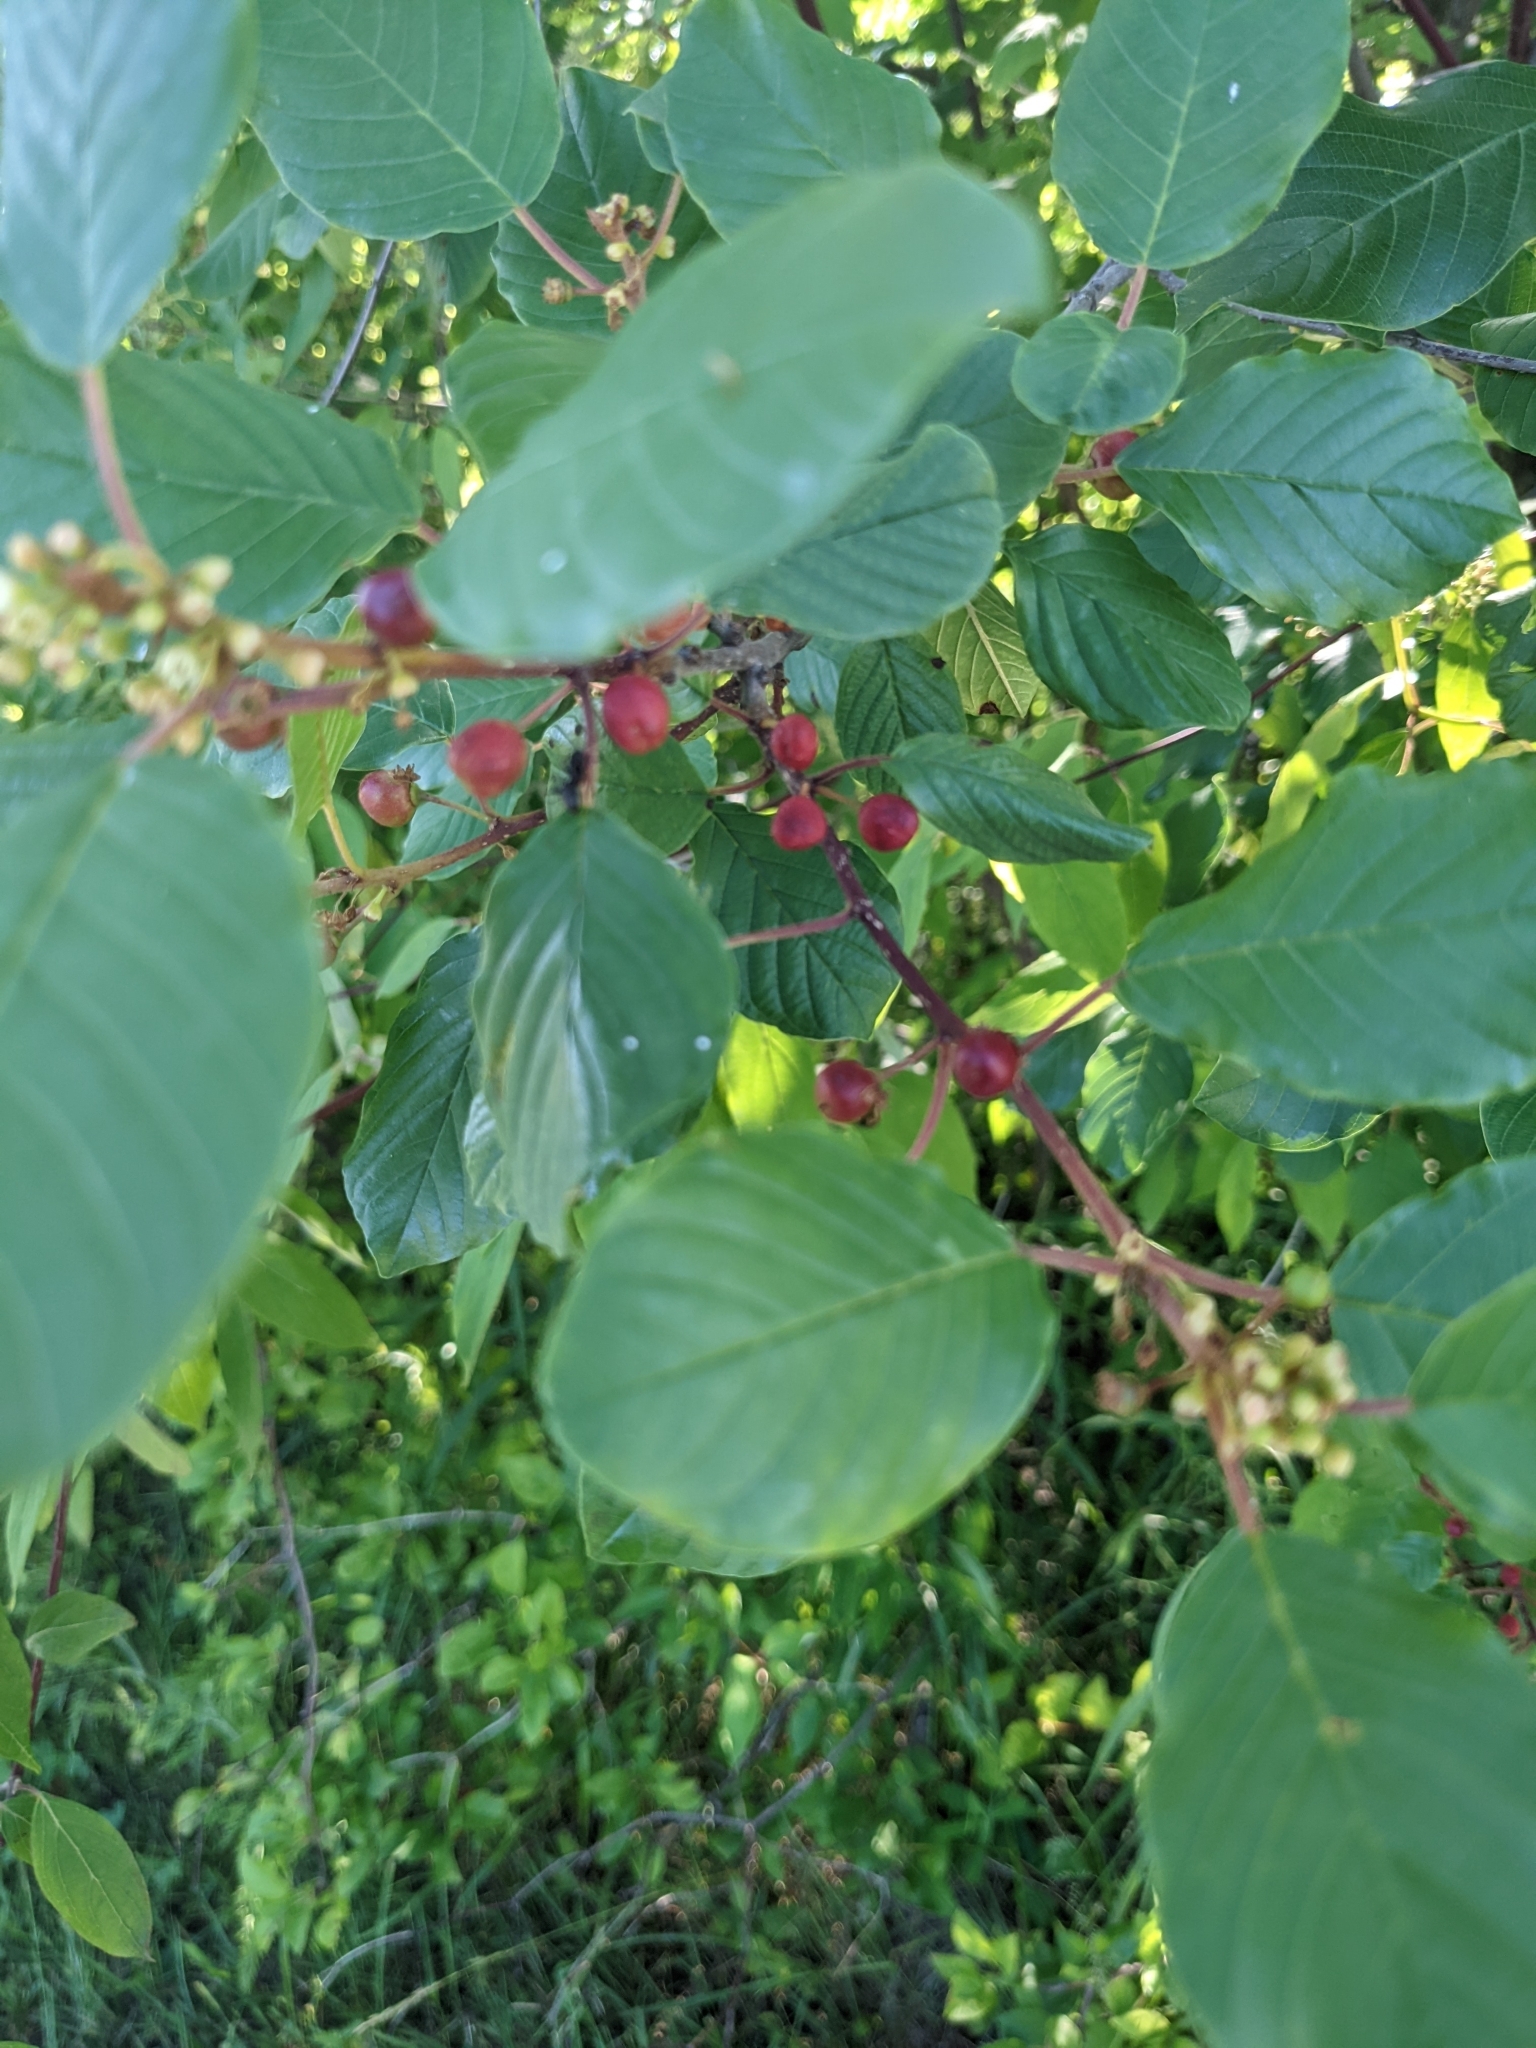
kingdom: Plantae
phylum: Tracheophyta
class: Magnoliopsida
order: Rosales
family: Rhamnaceae
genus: Frangula
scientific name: Frangula alnus
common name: Alder buckthorn
